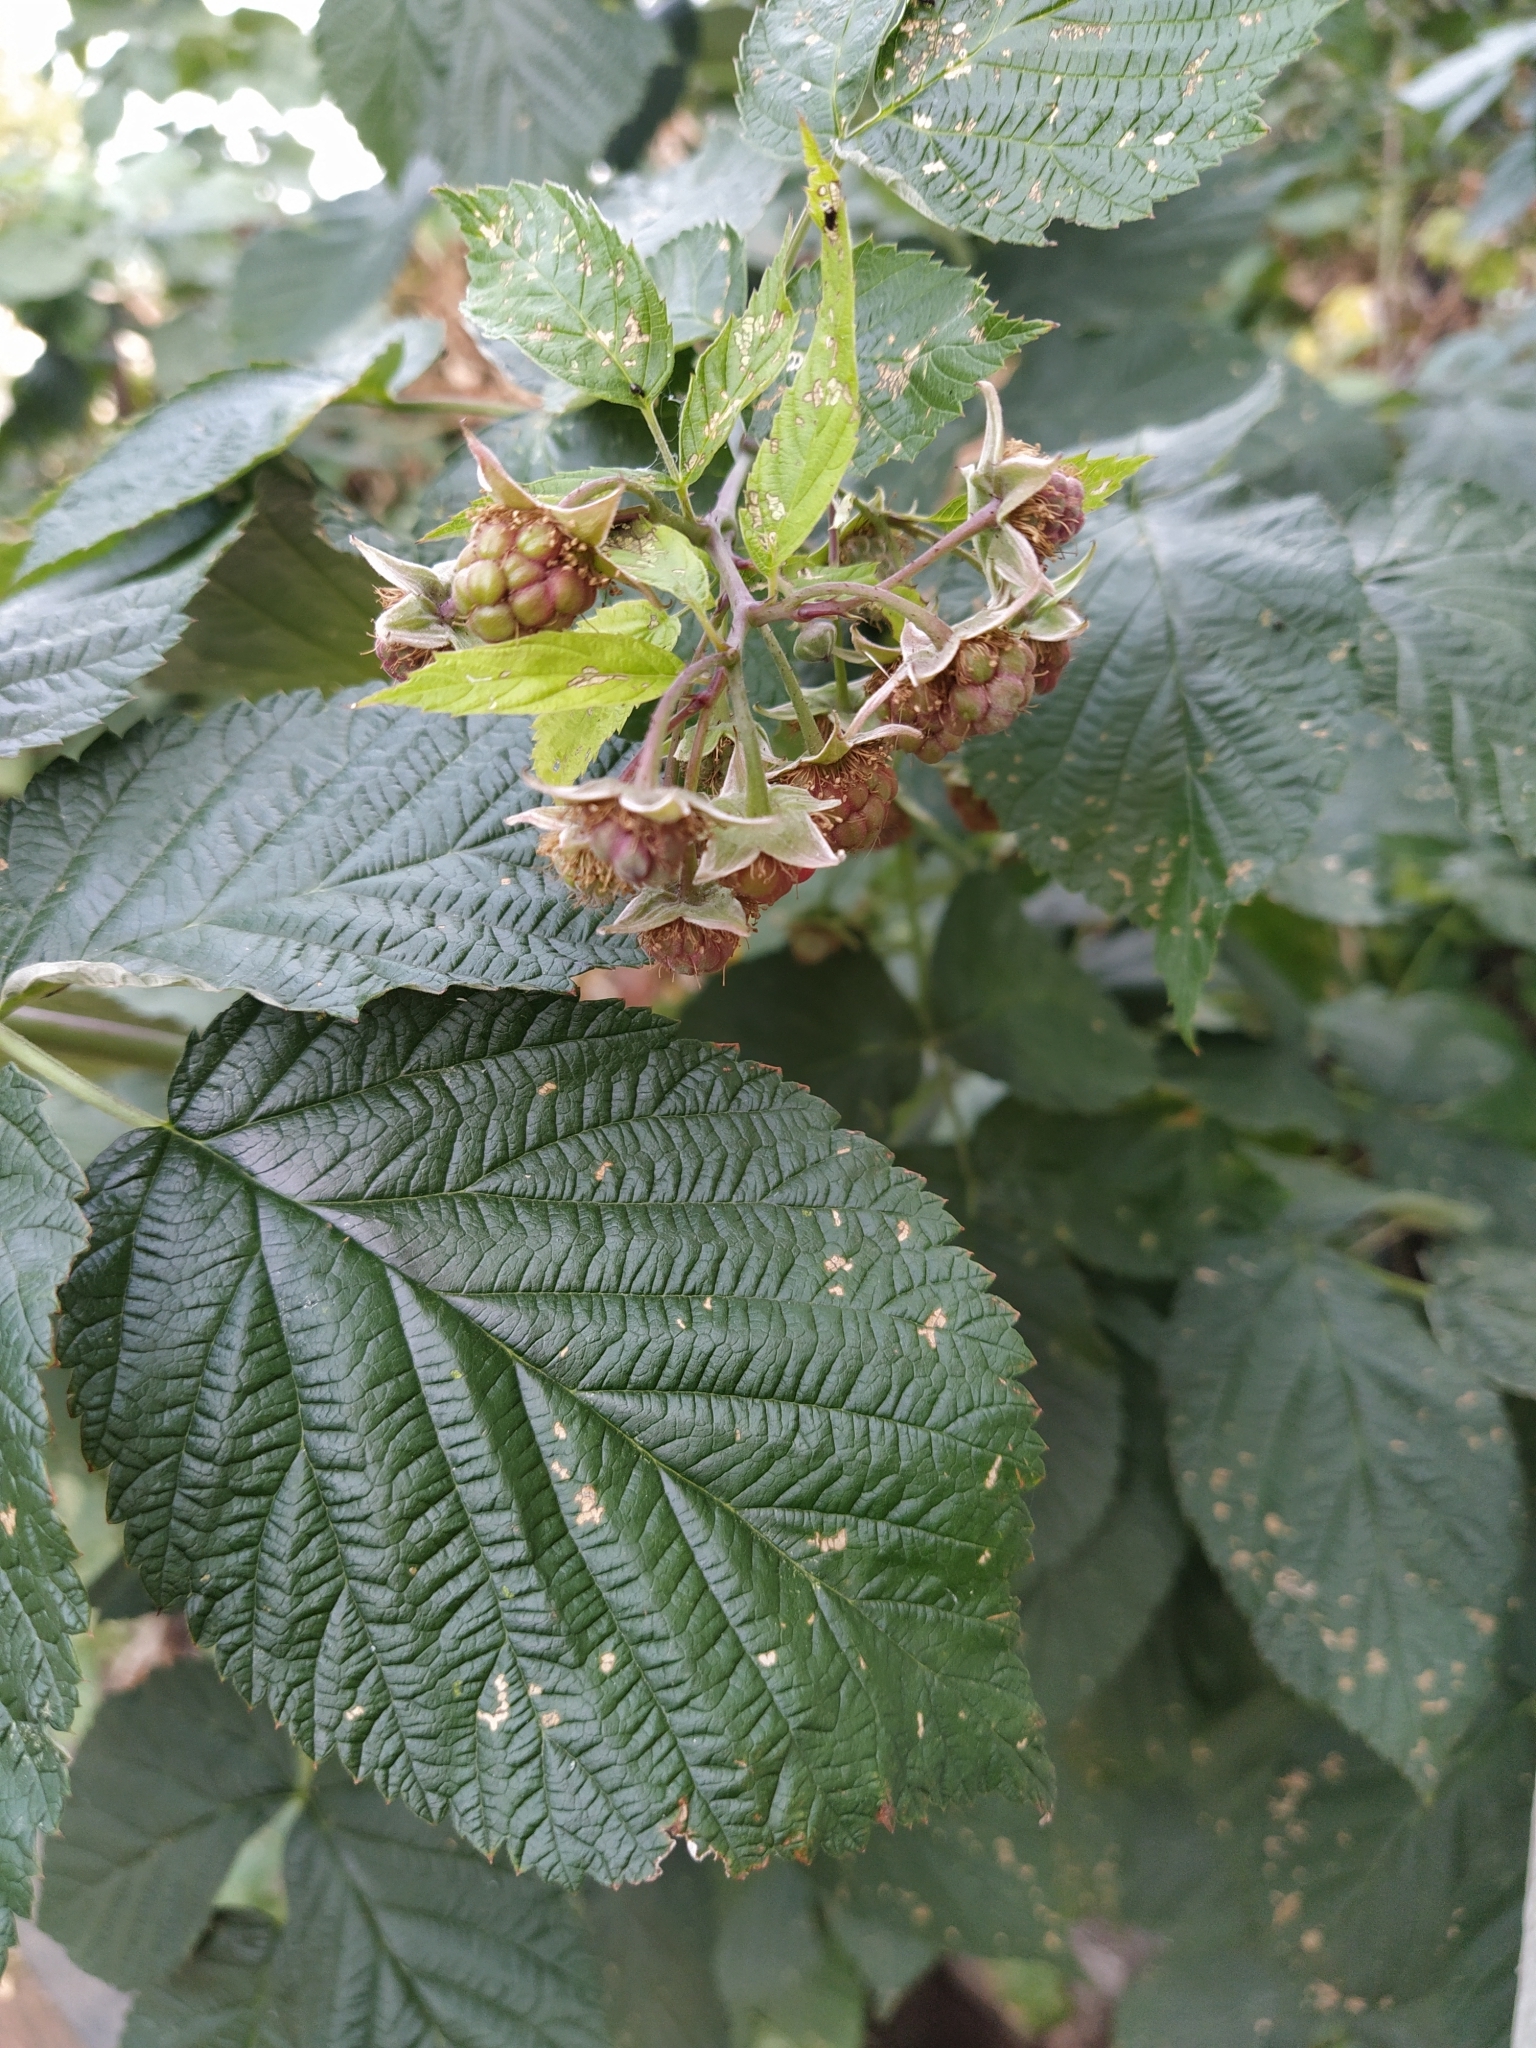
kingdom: Plantae
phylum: Tracheophyta
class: Magnoliopsida
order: Rosales
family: Rosaceae
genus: Rubus
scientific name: Rubus caesius
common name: Dewberry
